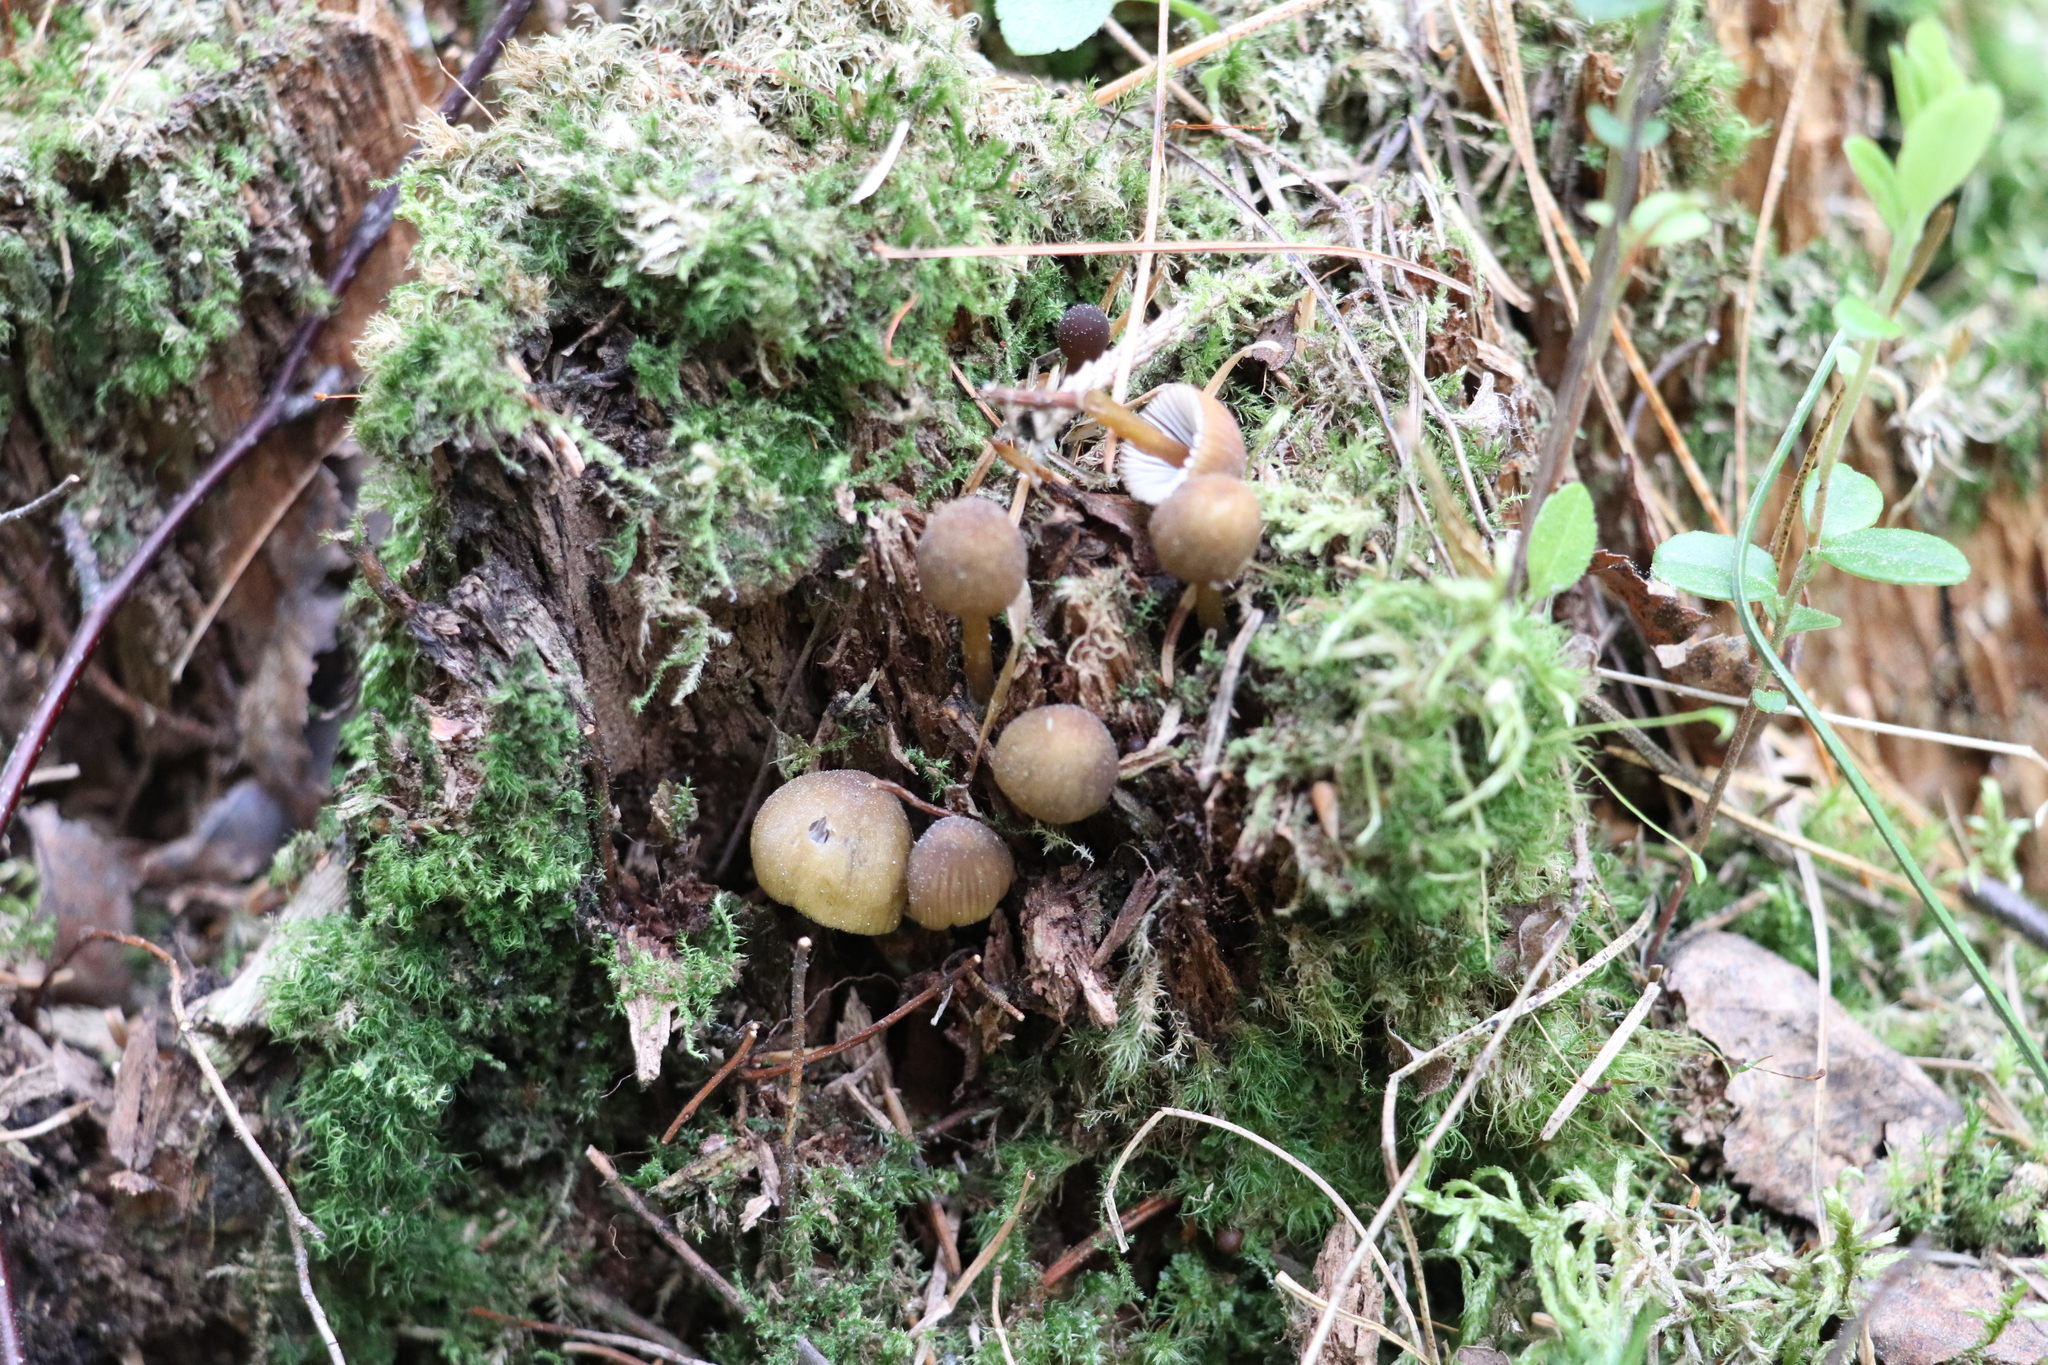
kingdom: Fungi
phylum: Basidiomycota
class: Agaricomycetes
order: Agaricales
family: Mycenaceae
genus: Mycena
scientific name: Mycena viridimarginata
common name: Olive edge bonnet
